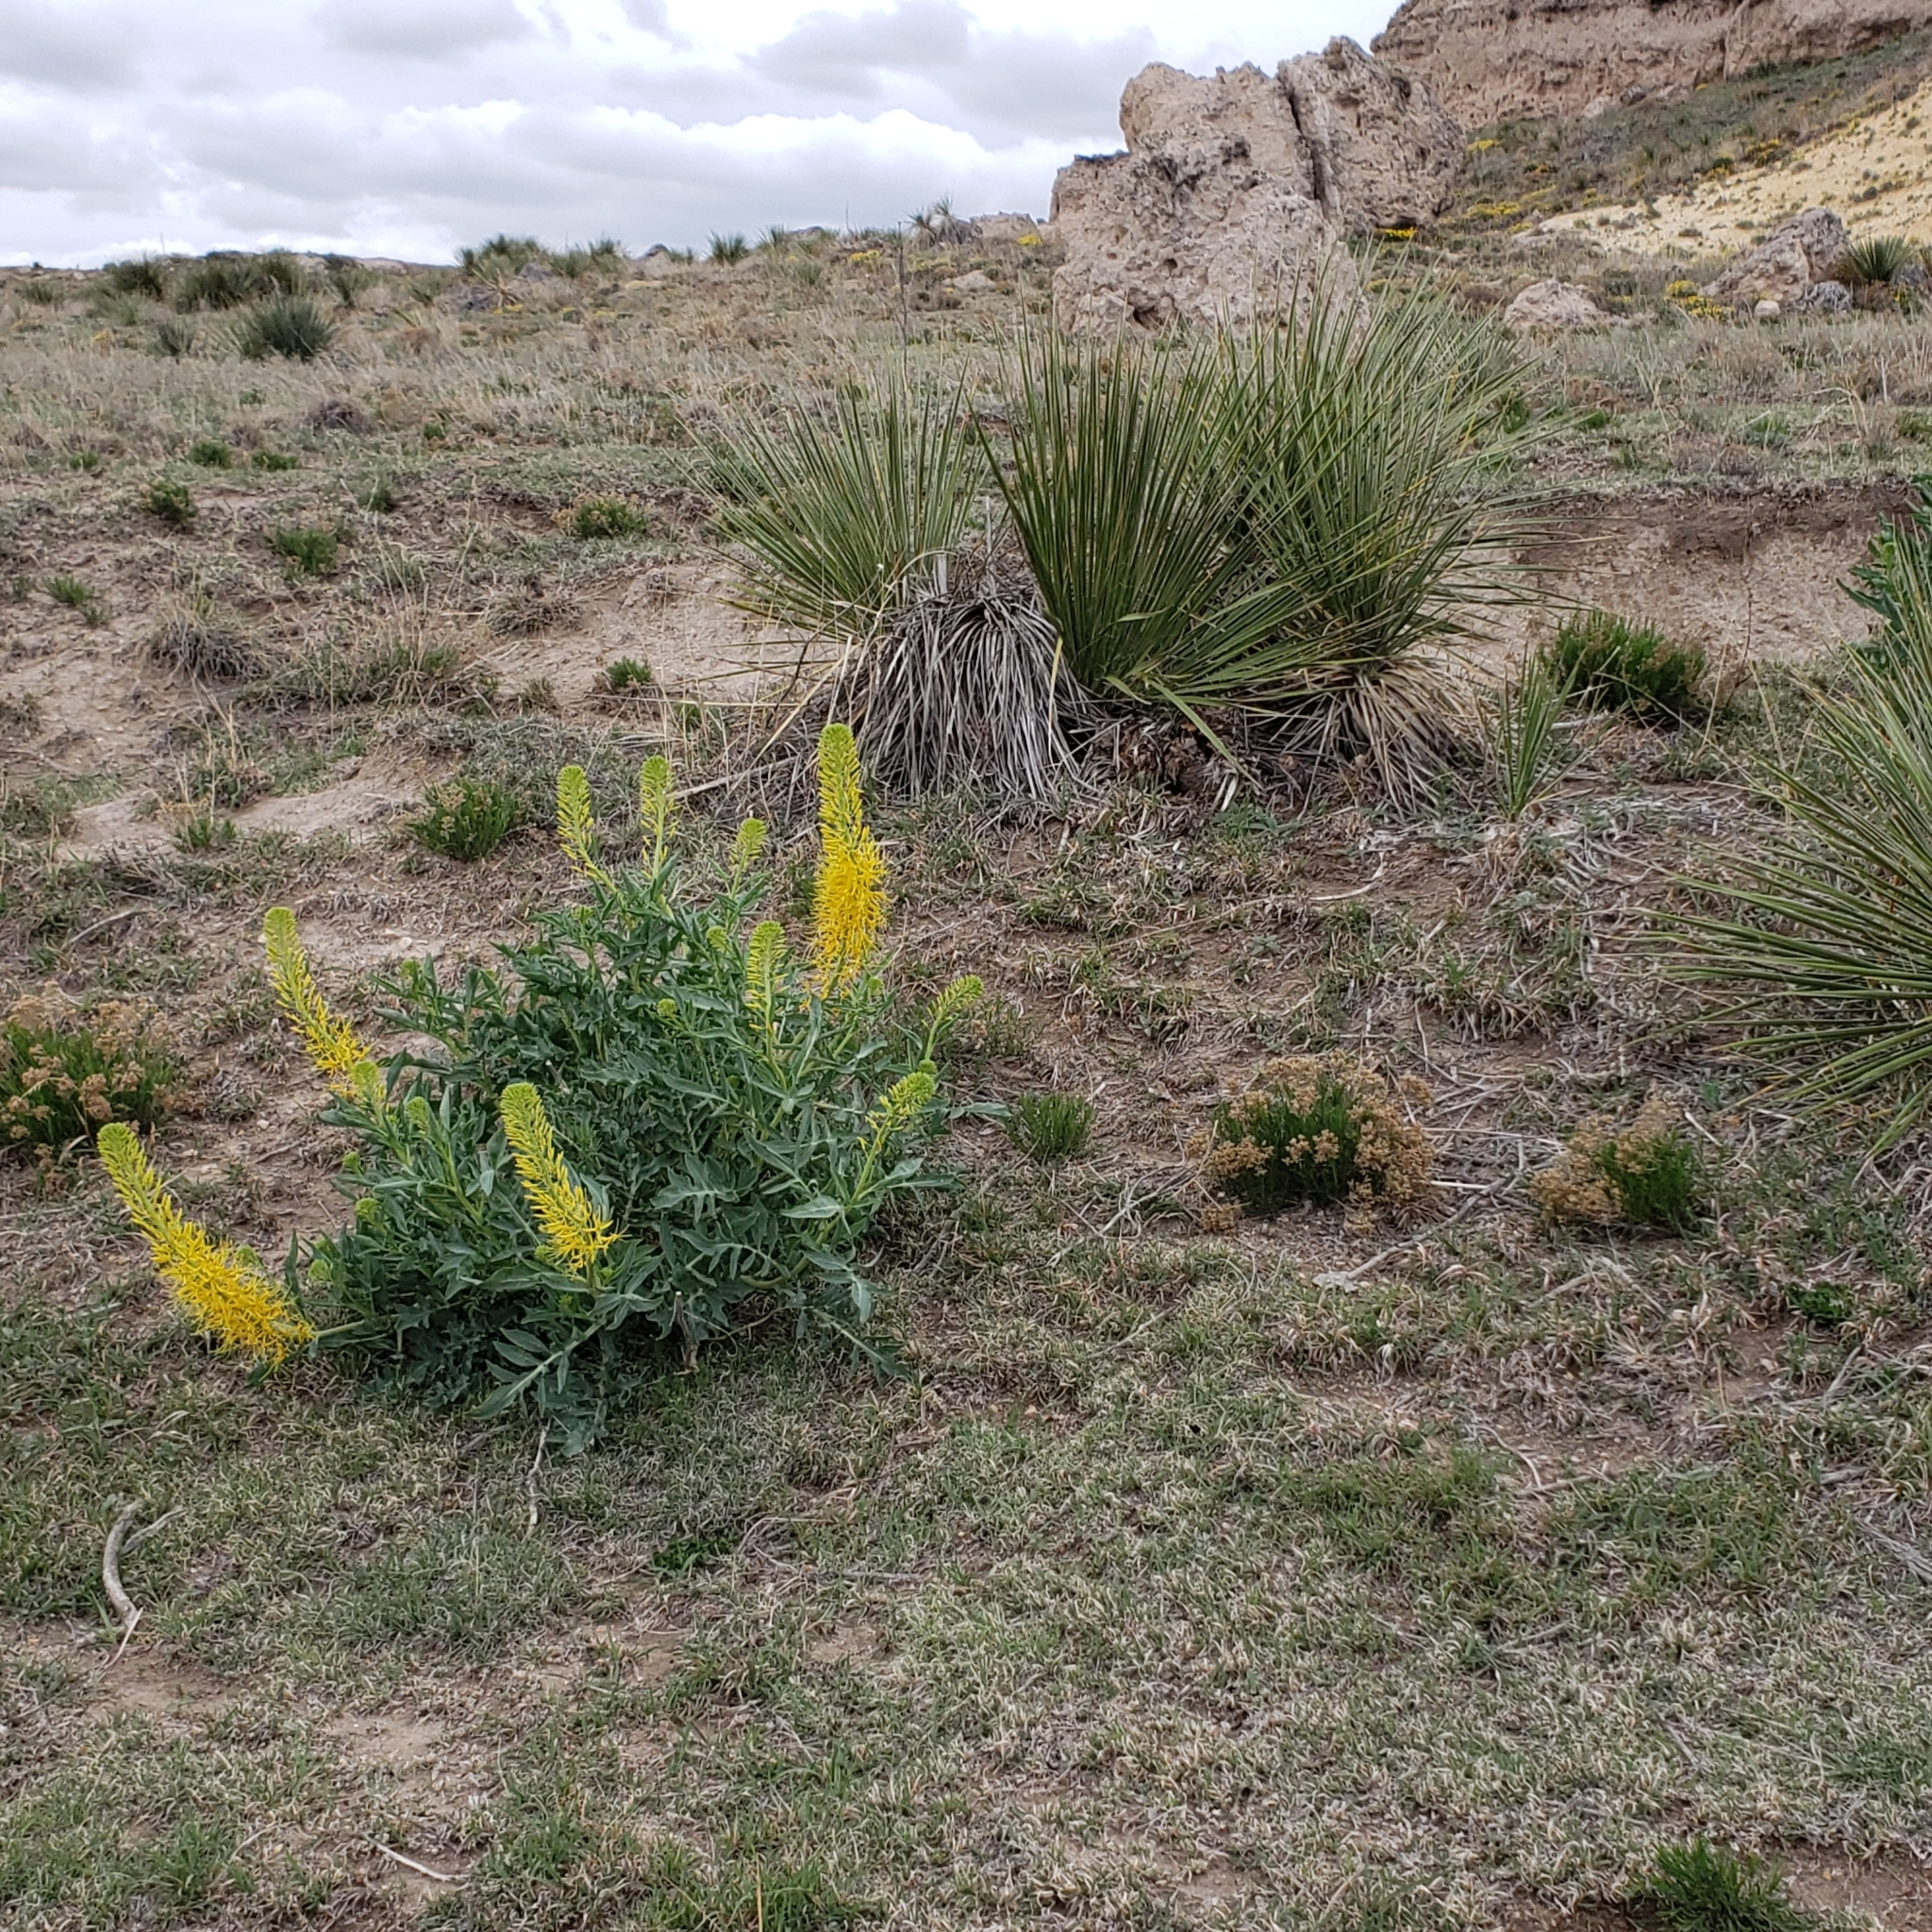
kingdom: Plantae
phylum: Tracheophyta
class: Magnoliopsida
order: Brassicales
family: Brassicaceae
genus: Stanleya
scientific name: Stanleya pinnata
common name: Prince's-plume
